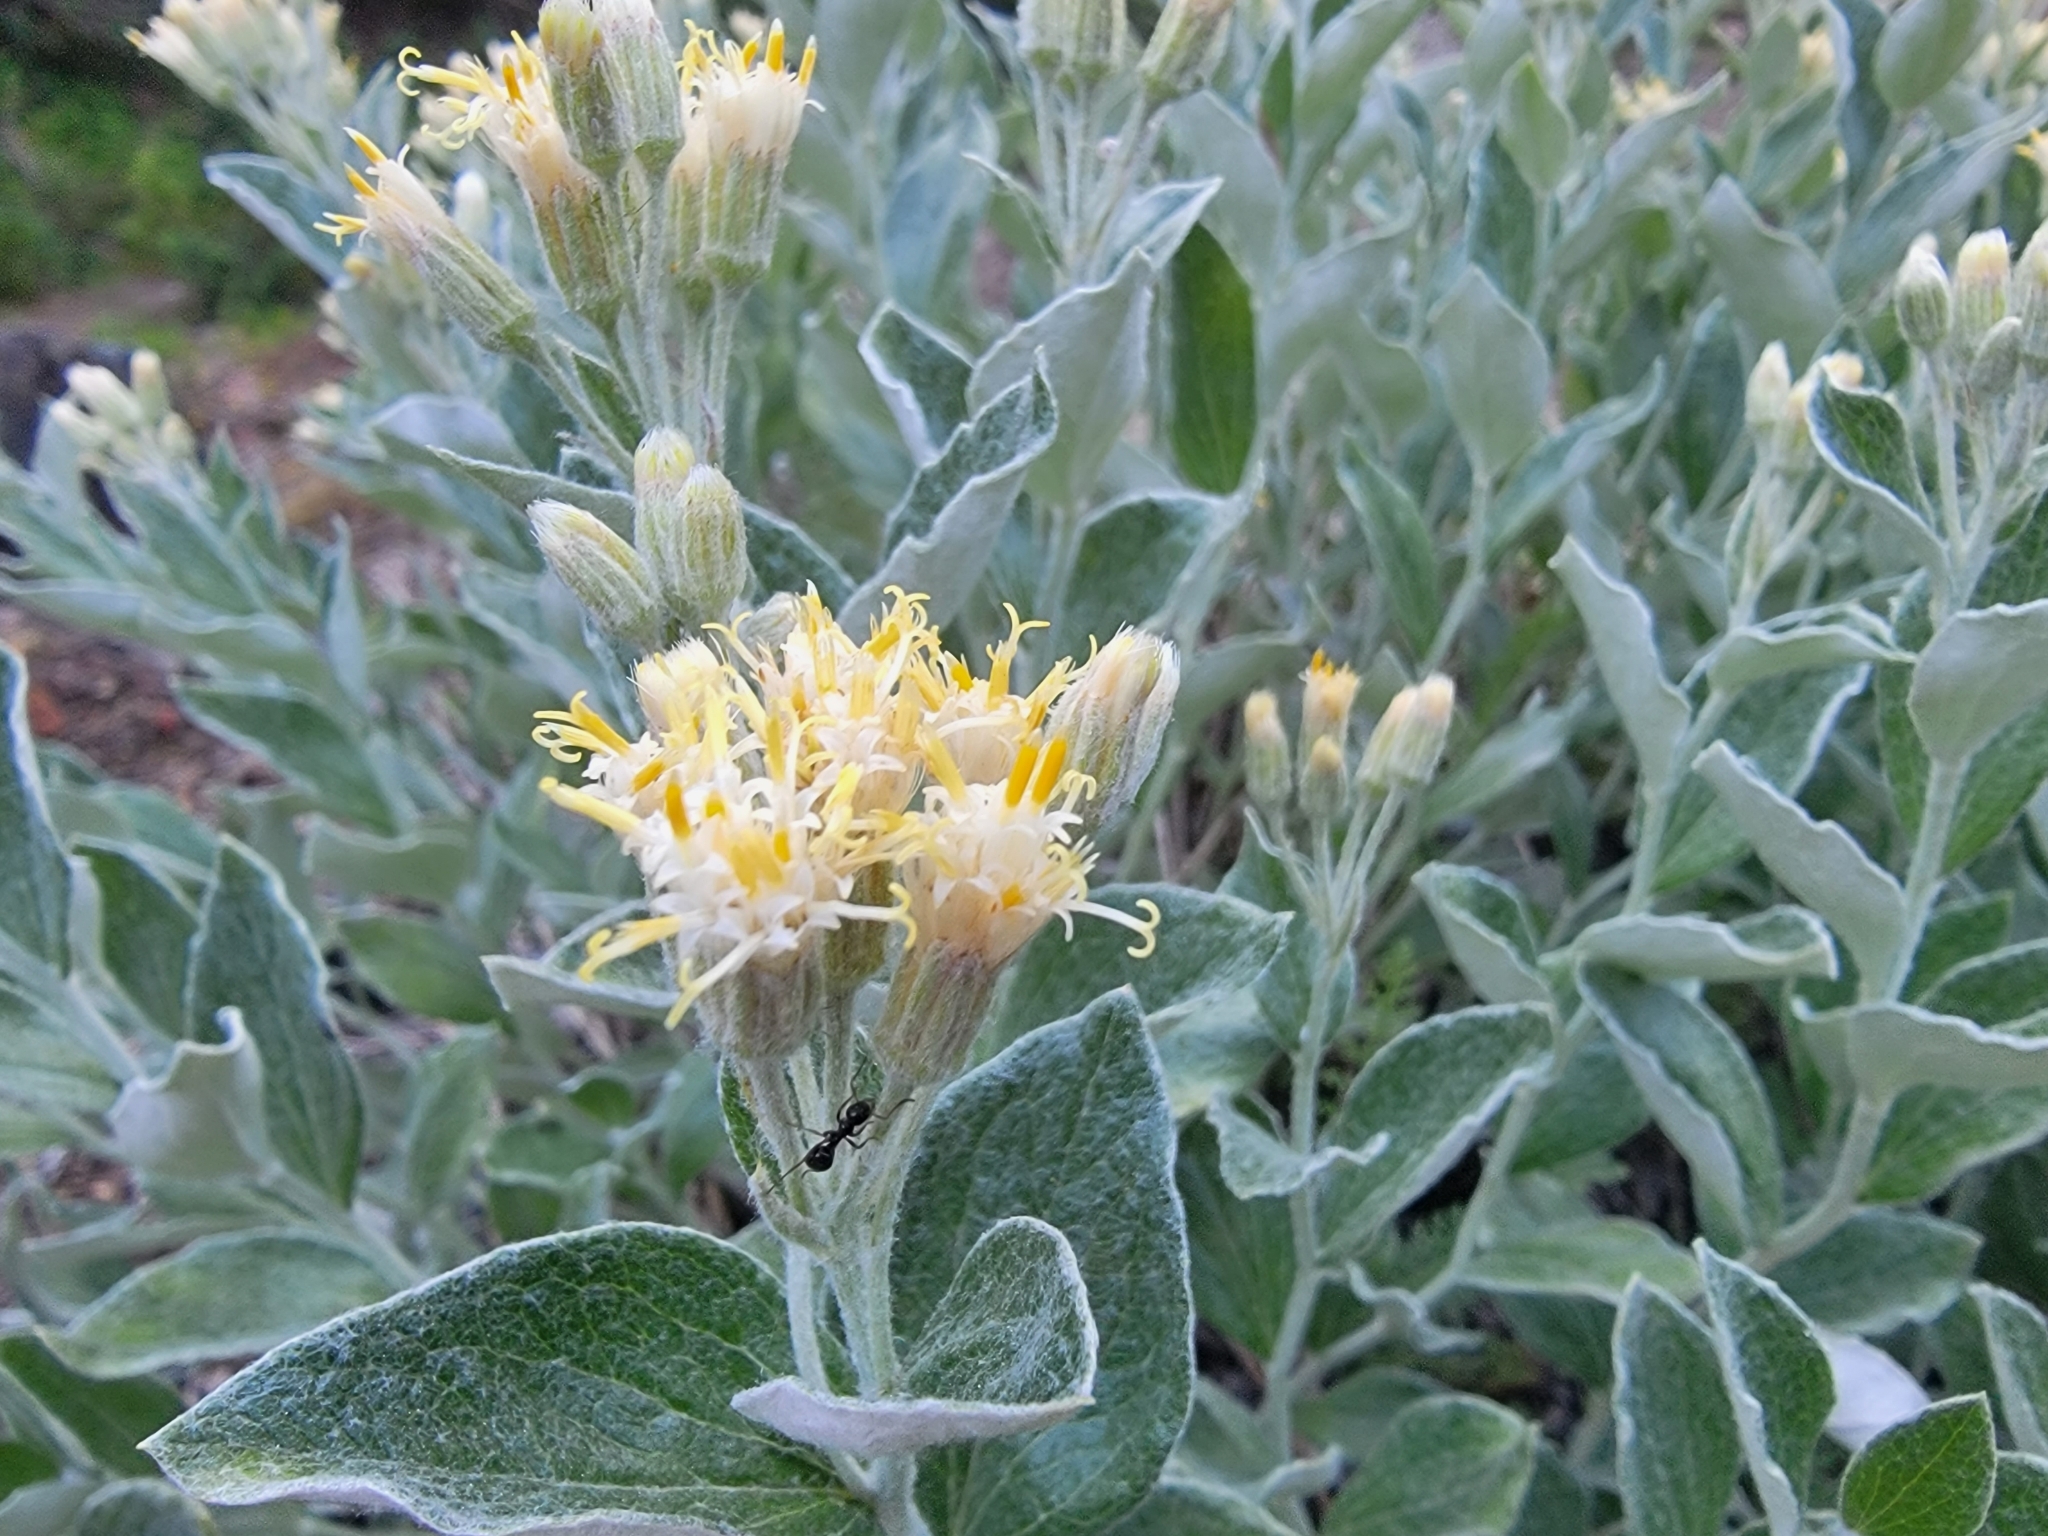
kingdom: Plantae
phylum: Tracheophyta
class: Magnoliopsida
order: Asterales
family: Asteraceae
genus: Luina
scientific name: Luina hypoleuca
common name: Little-leaved luina
